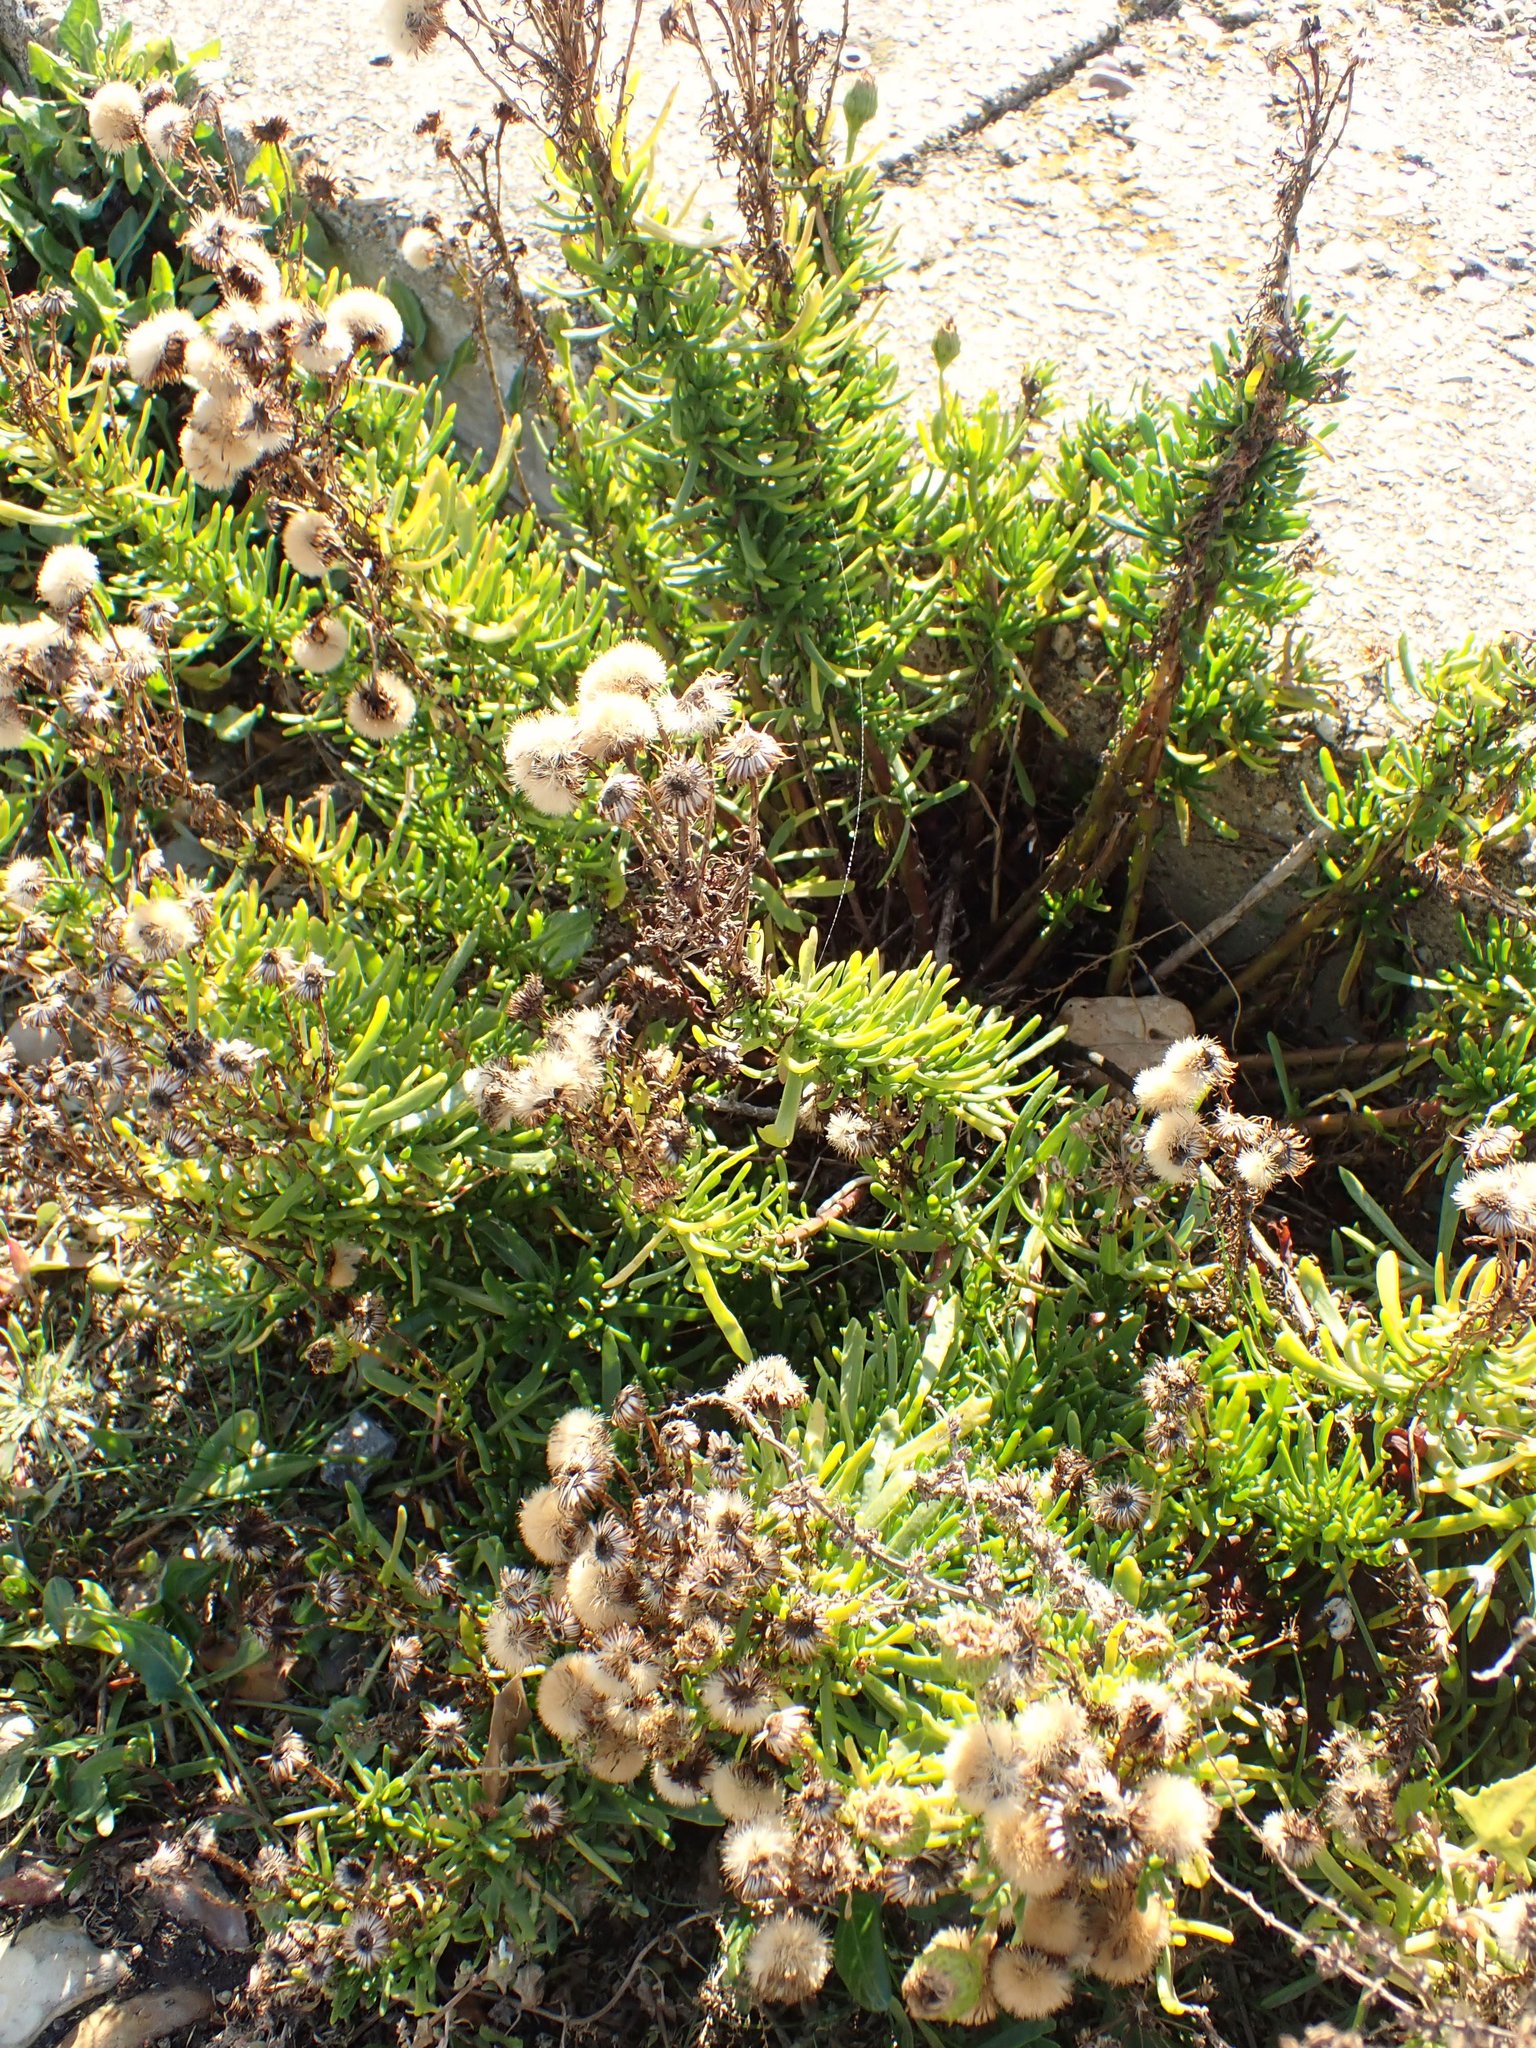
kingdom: Plantae
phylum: Tracheophyta
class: Magnoliopsida
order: Asterales
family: Asteraceae
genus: Limbarda
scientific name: Limbarda crithmoides
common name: Golden samphire
